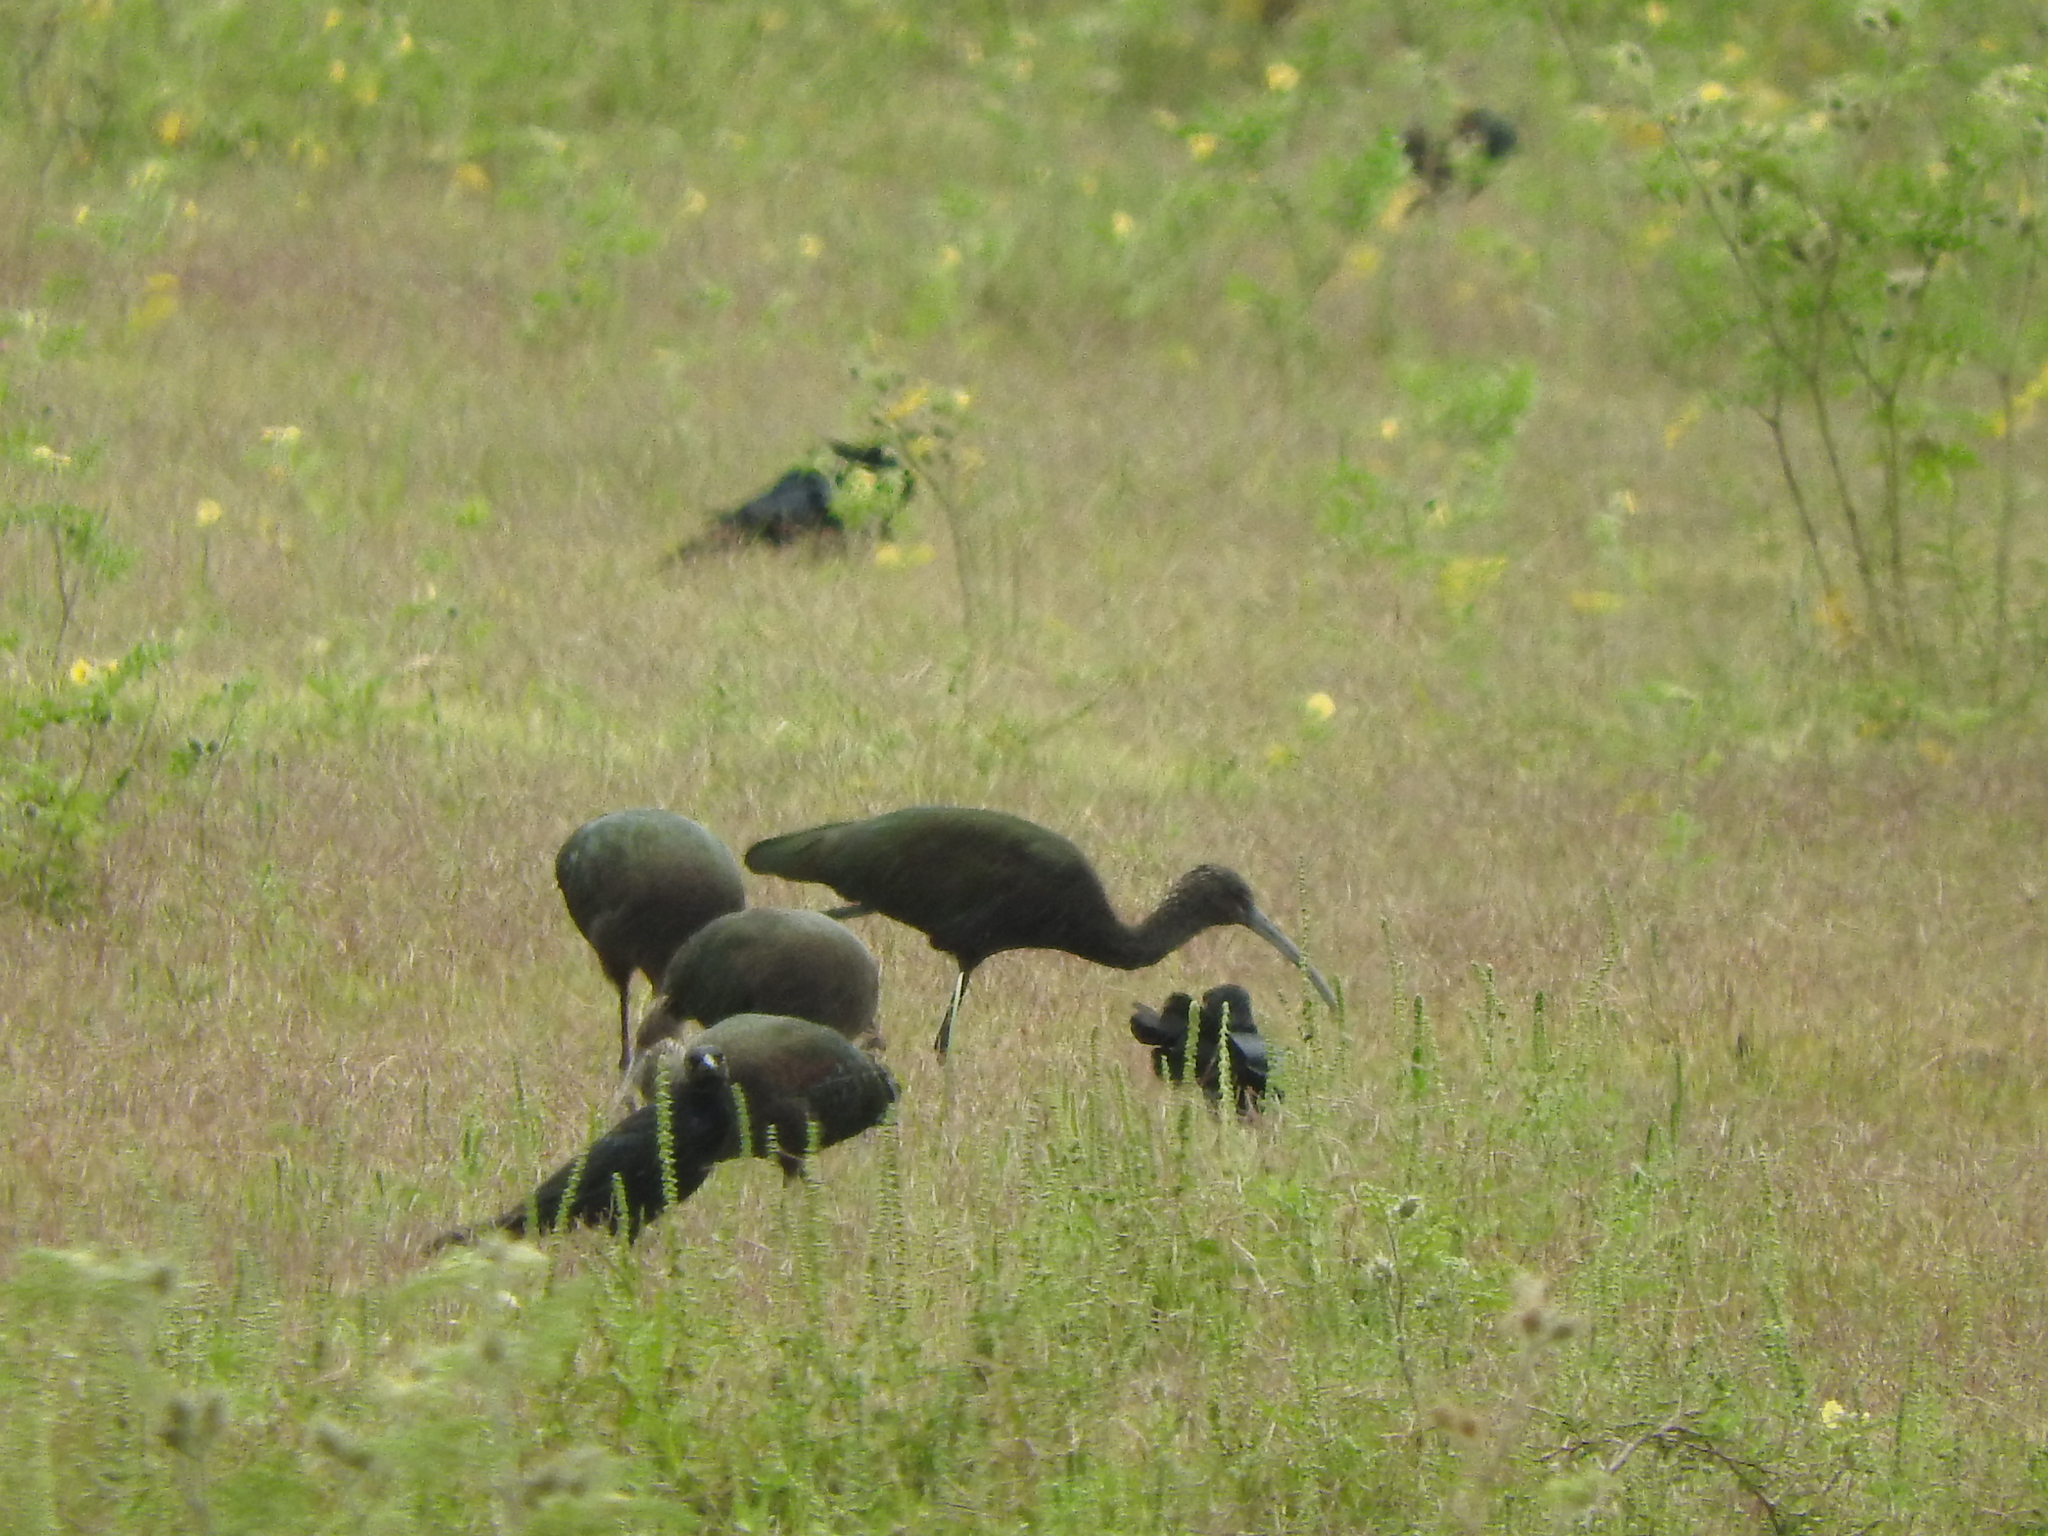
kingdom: Animalia
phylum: Chordata
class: Aves
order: Pelecaniformes
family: Threskiornithidae
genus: Plegadis
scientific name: Plegadis chihi
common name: White-faced ibis
